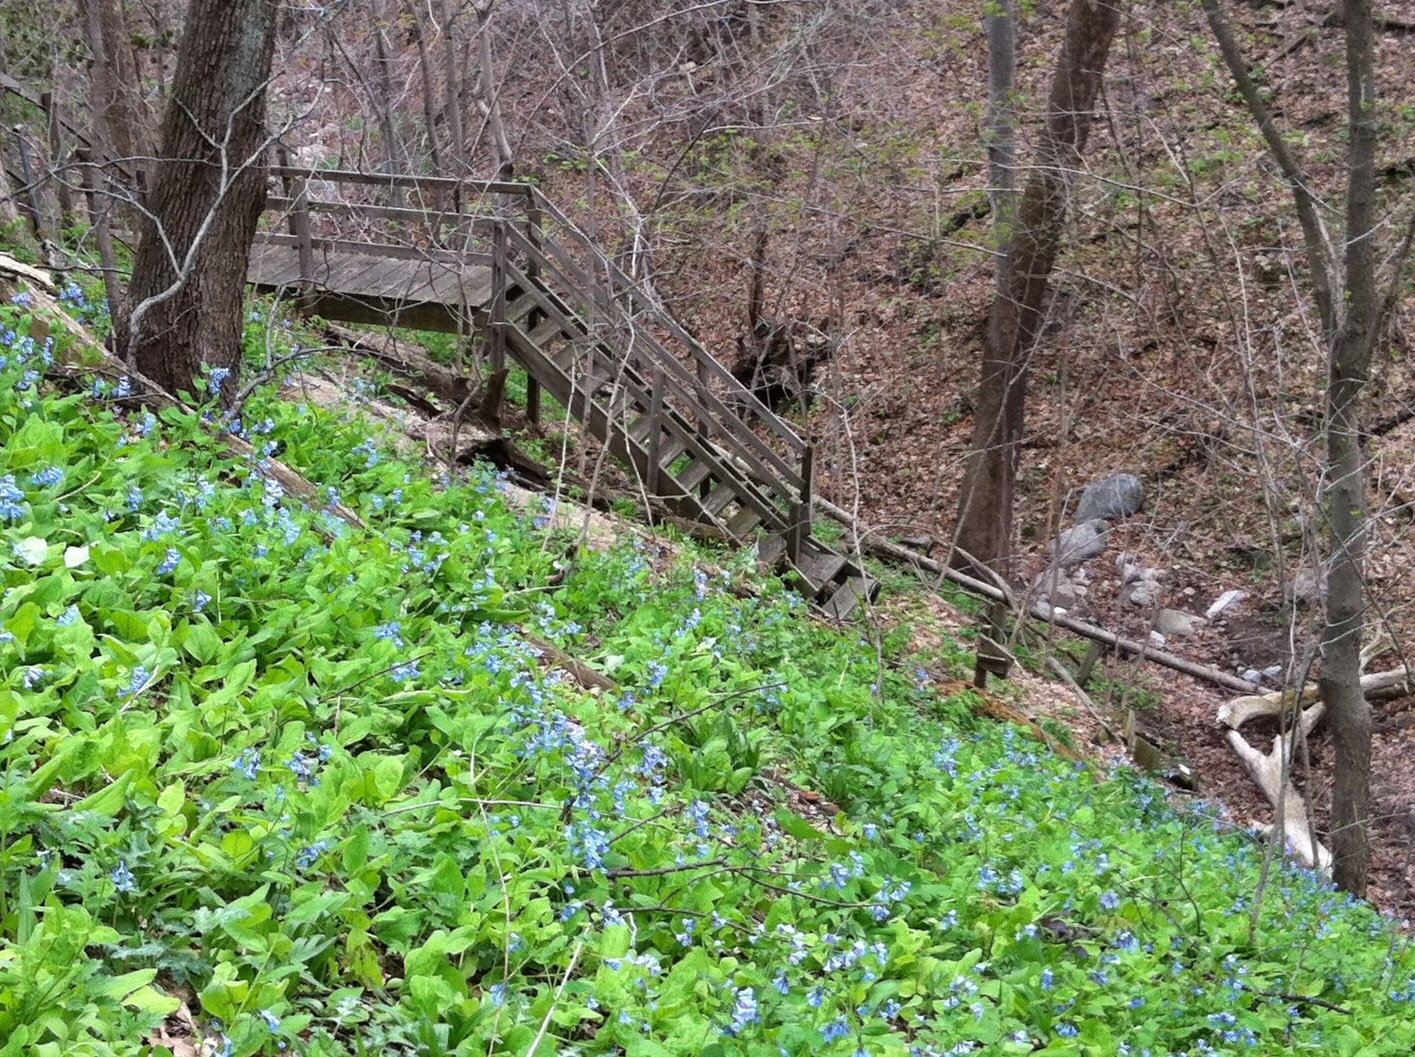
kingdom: Plantae
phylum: Tracheophyta
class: Magnoliopsida
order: Boraginales
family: Boraginaceae
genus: Mertensia
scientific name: Mertensia virginica
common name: Virginia bluebells
